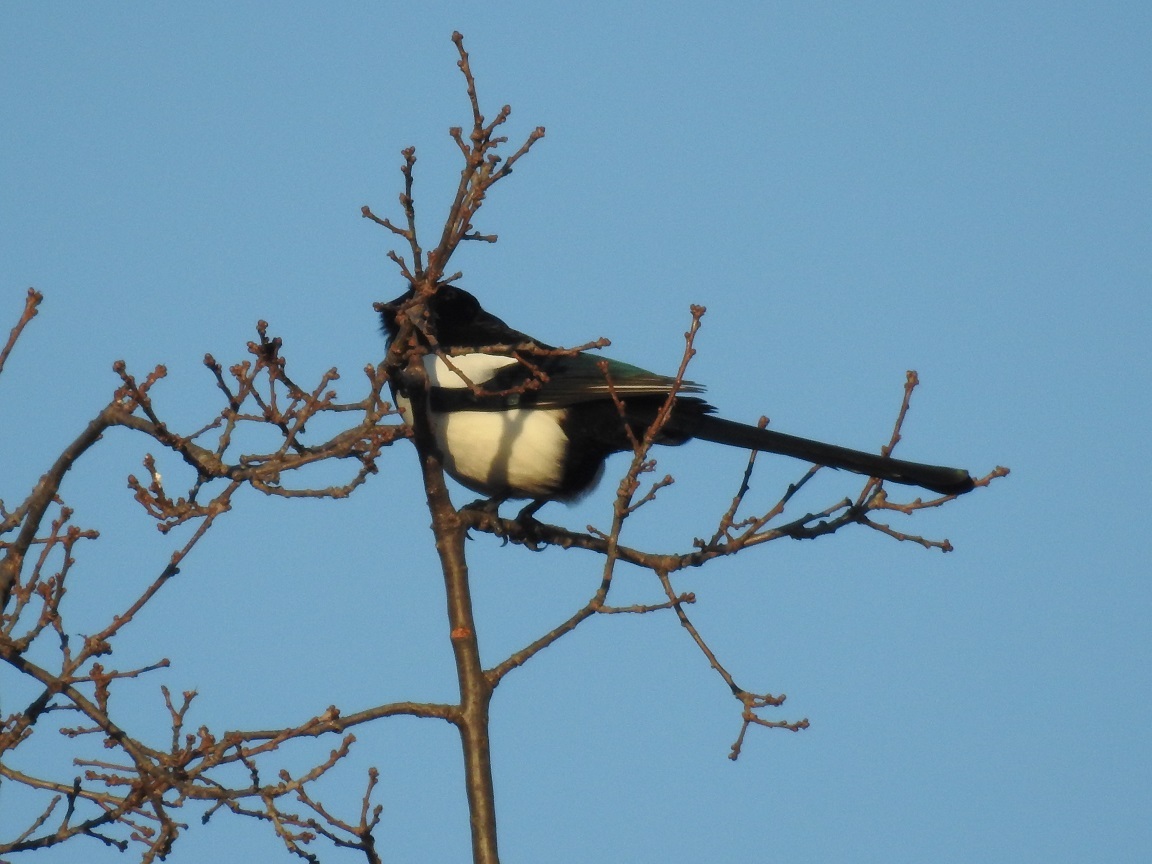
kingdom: Animalia
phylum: Chordata
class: Aves
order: Passeriformes
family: Corvidae
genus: Pica
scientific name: Pica pica
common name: Eurasian magpie
